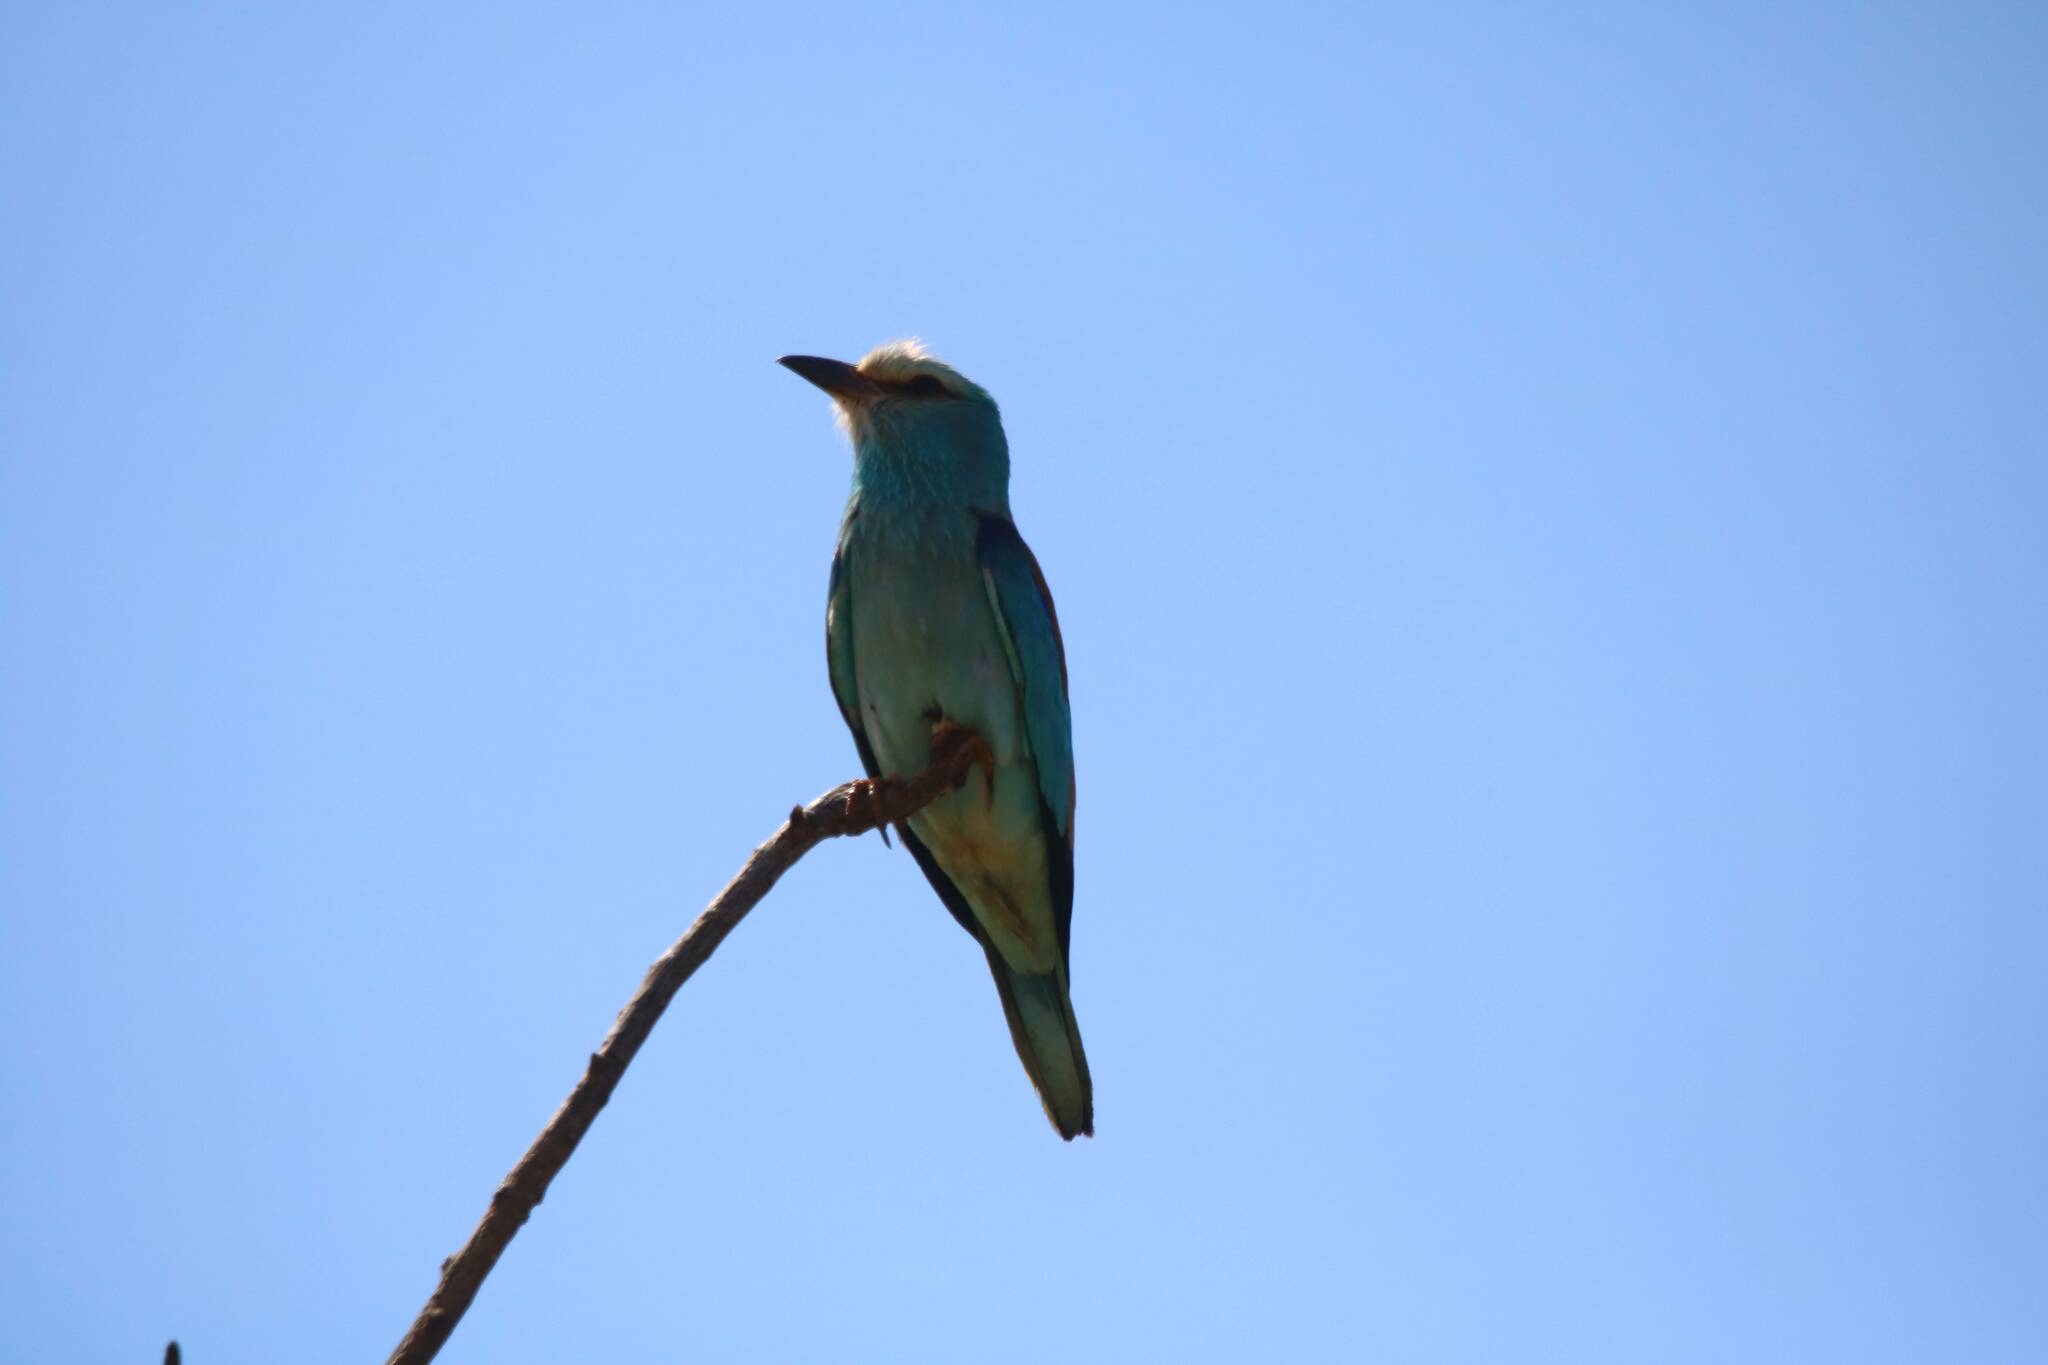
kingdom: Animalia
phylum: Chordata
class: Aves
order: Coraciiformes
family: Coraciidae
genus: Coracias
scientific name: Coracias garrulus
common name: European roller
